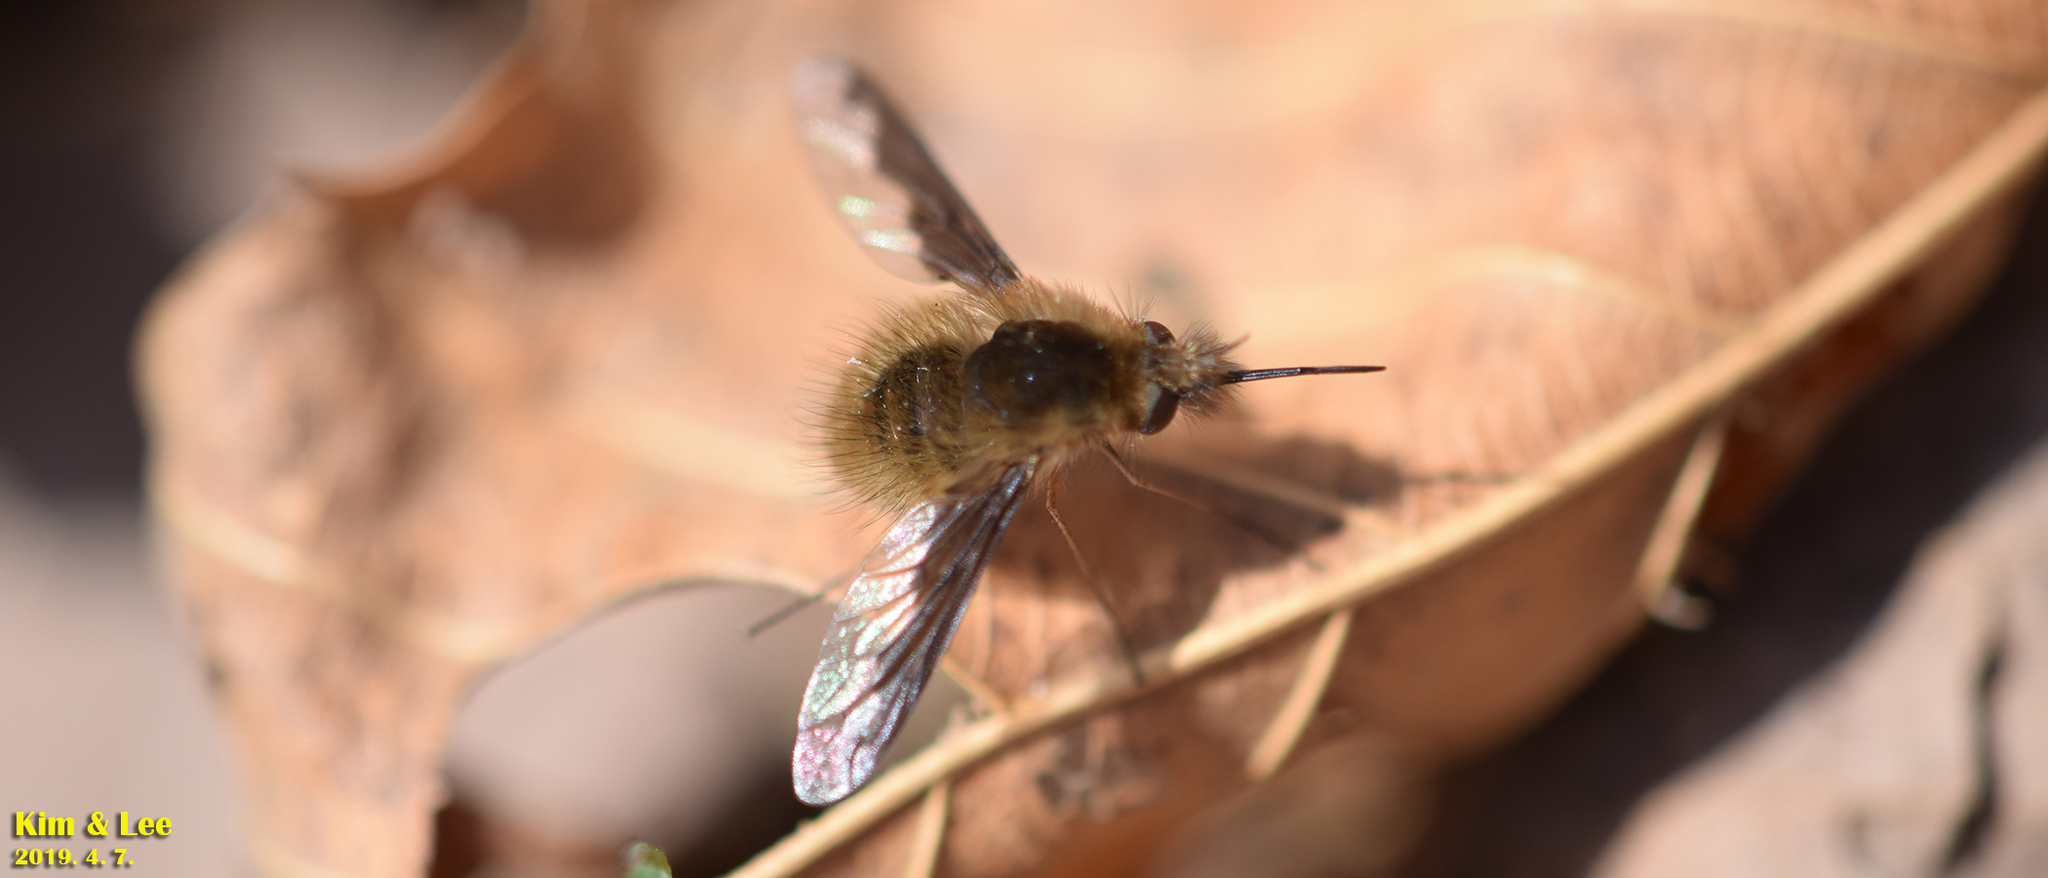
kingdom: Animalia
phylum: Arthropoda
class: Insecta
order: Diptera
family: Bombyliidae
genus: Bombylius
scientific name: Bombylius major
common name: Bee fly
